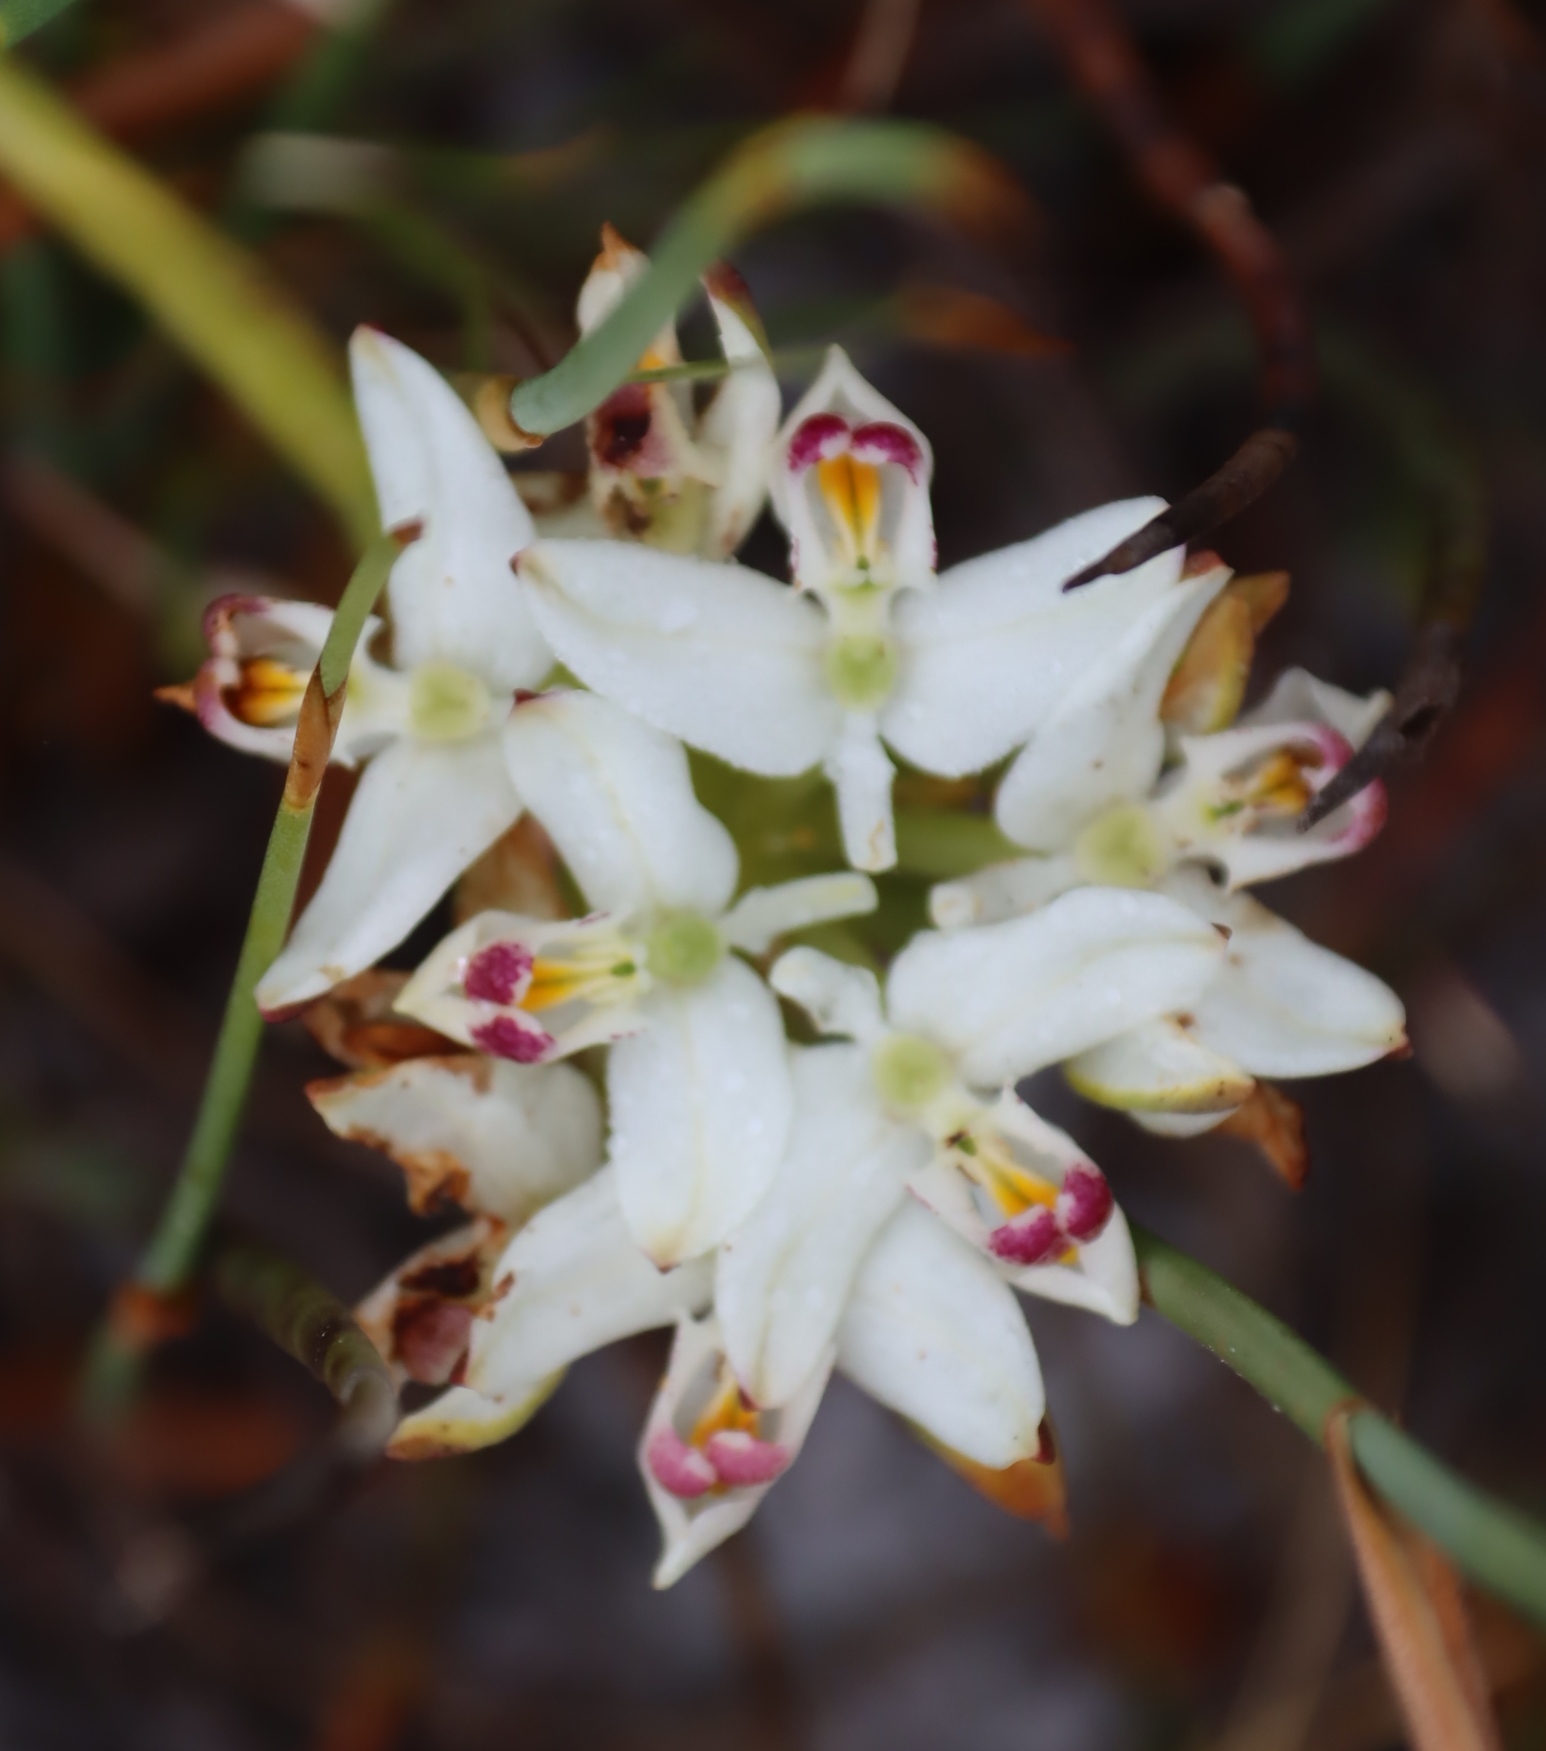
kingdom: Plantae
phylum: Tracheophyta
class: Liliopsida
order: Asparagales
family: Orchidaceae
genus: Disa
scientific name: Disa bivalvata
